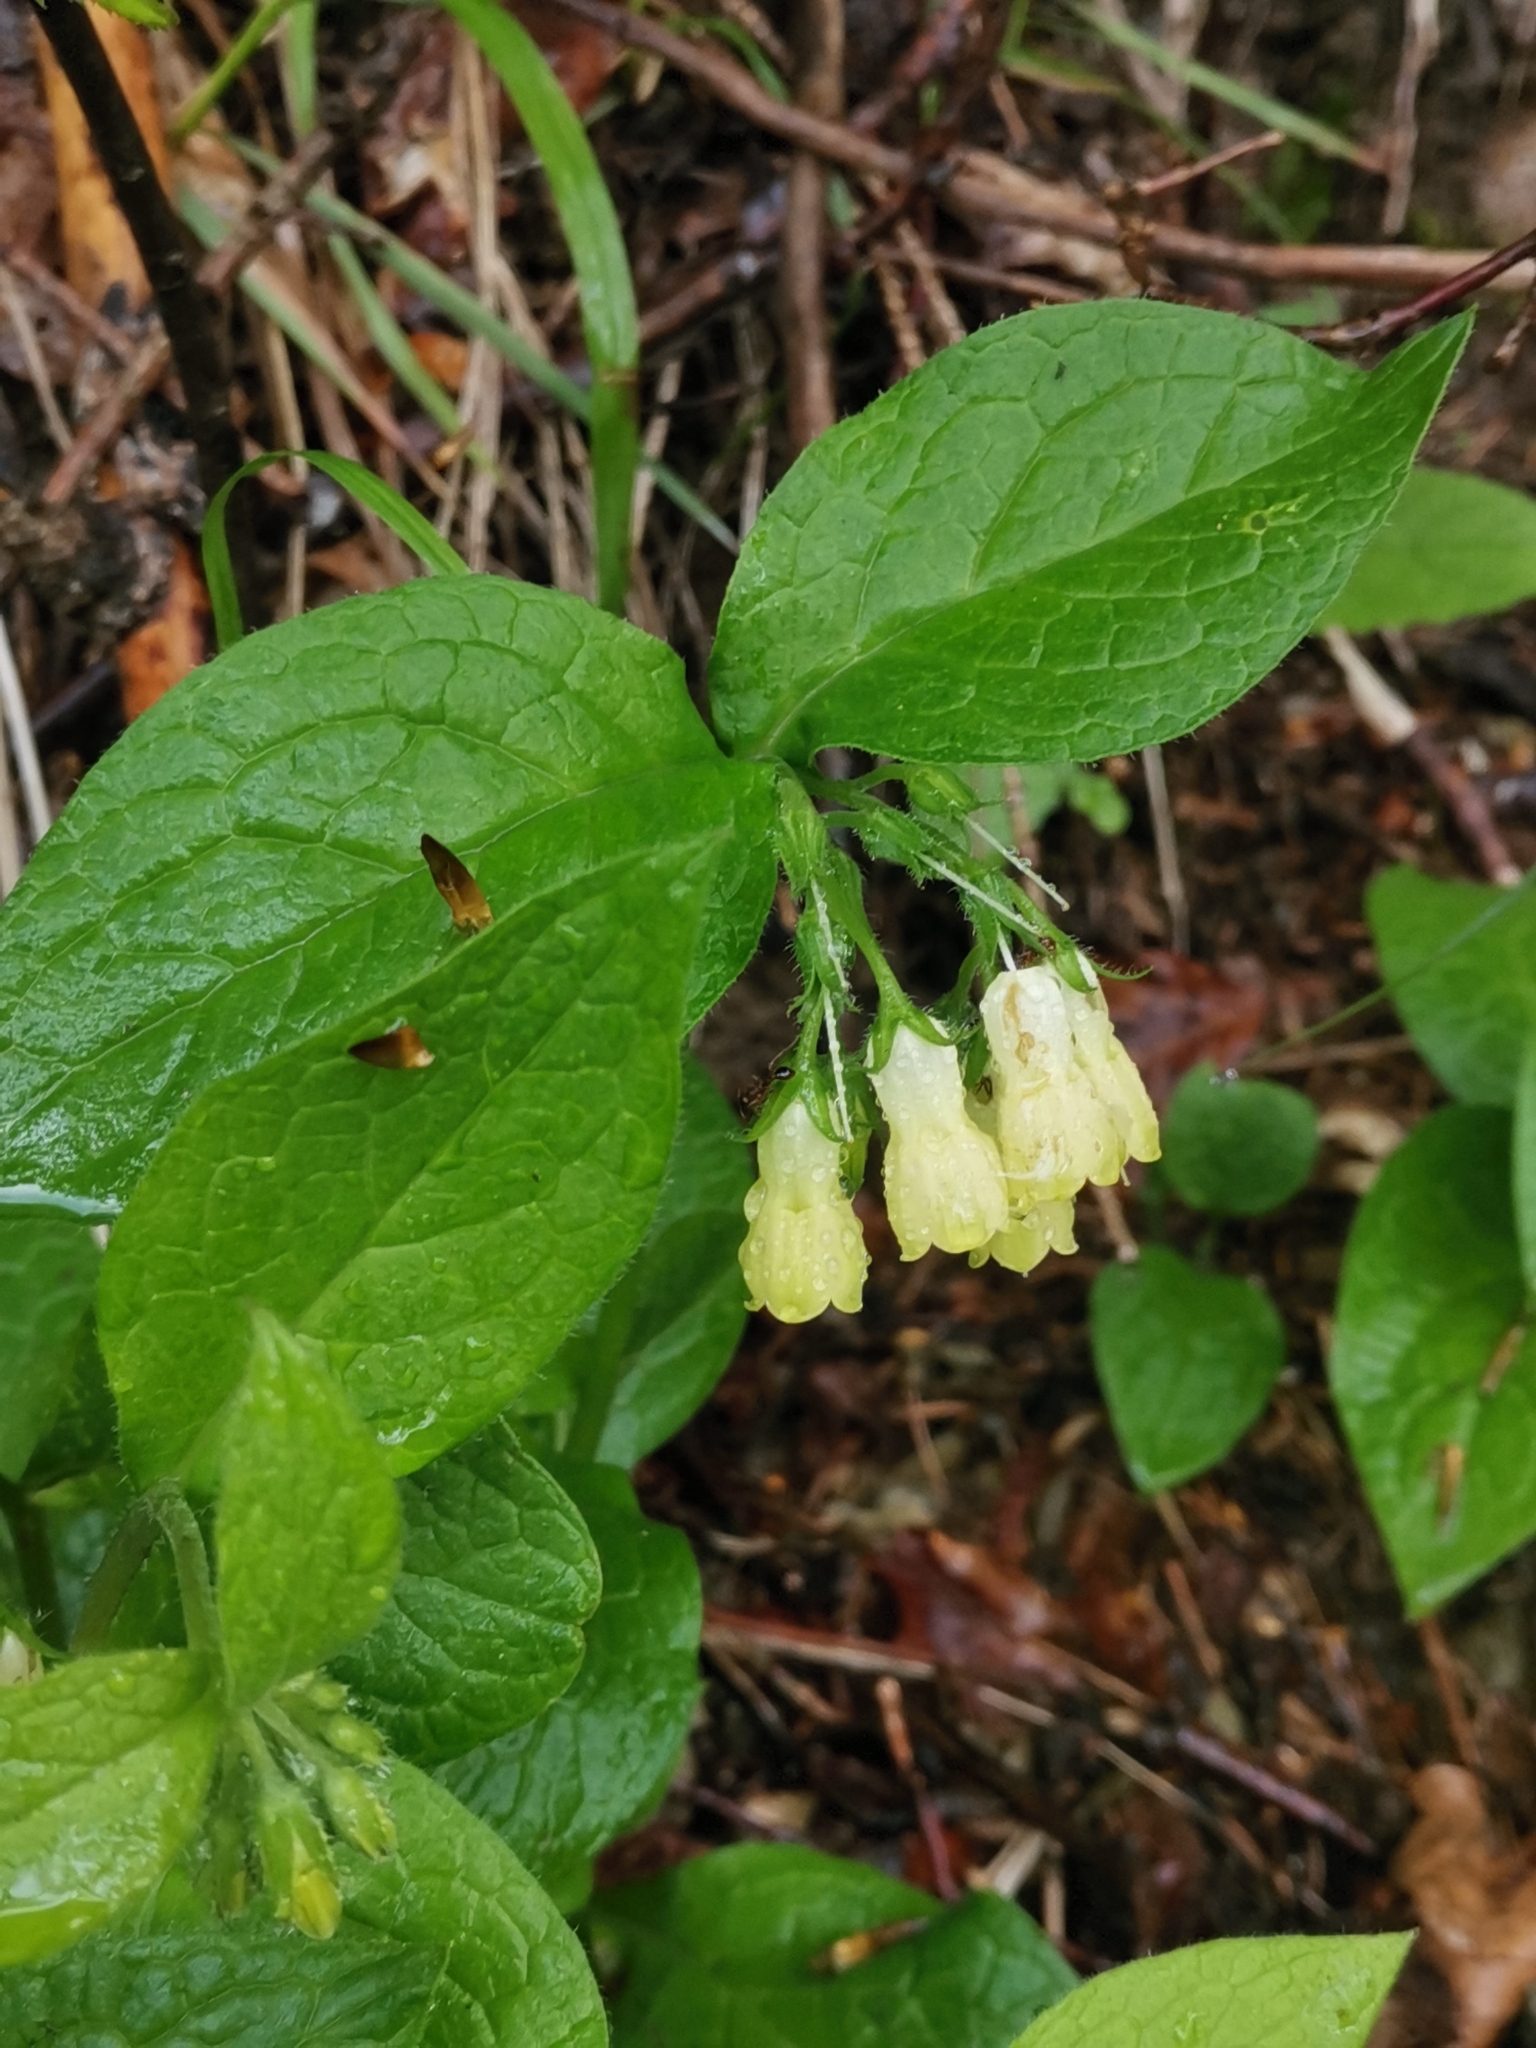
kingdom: Plantae
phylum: Tracheophyta
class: Magnoliopsida
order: Boraginales
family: Boraginaceae
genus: Symphytum
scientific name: Symphytum tuberosum
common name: Tuberous comfrey
